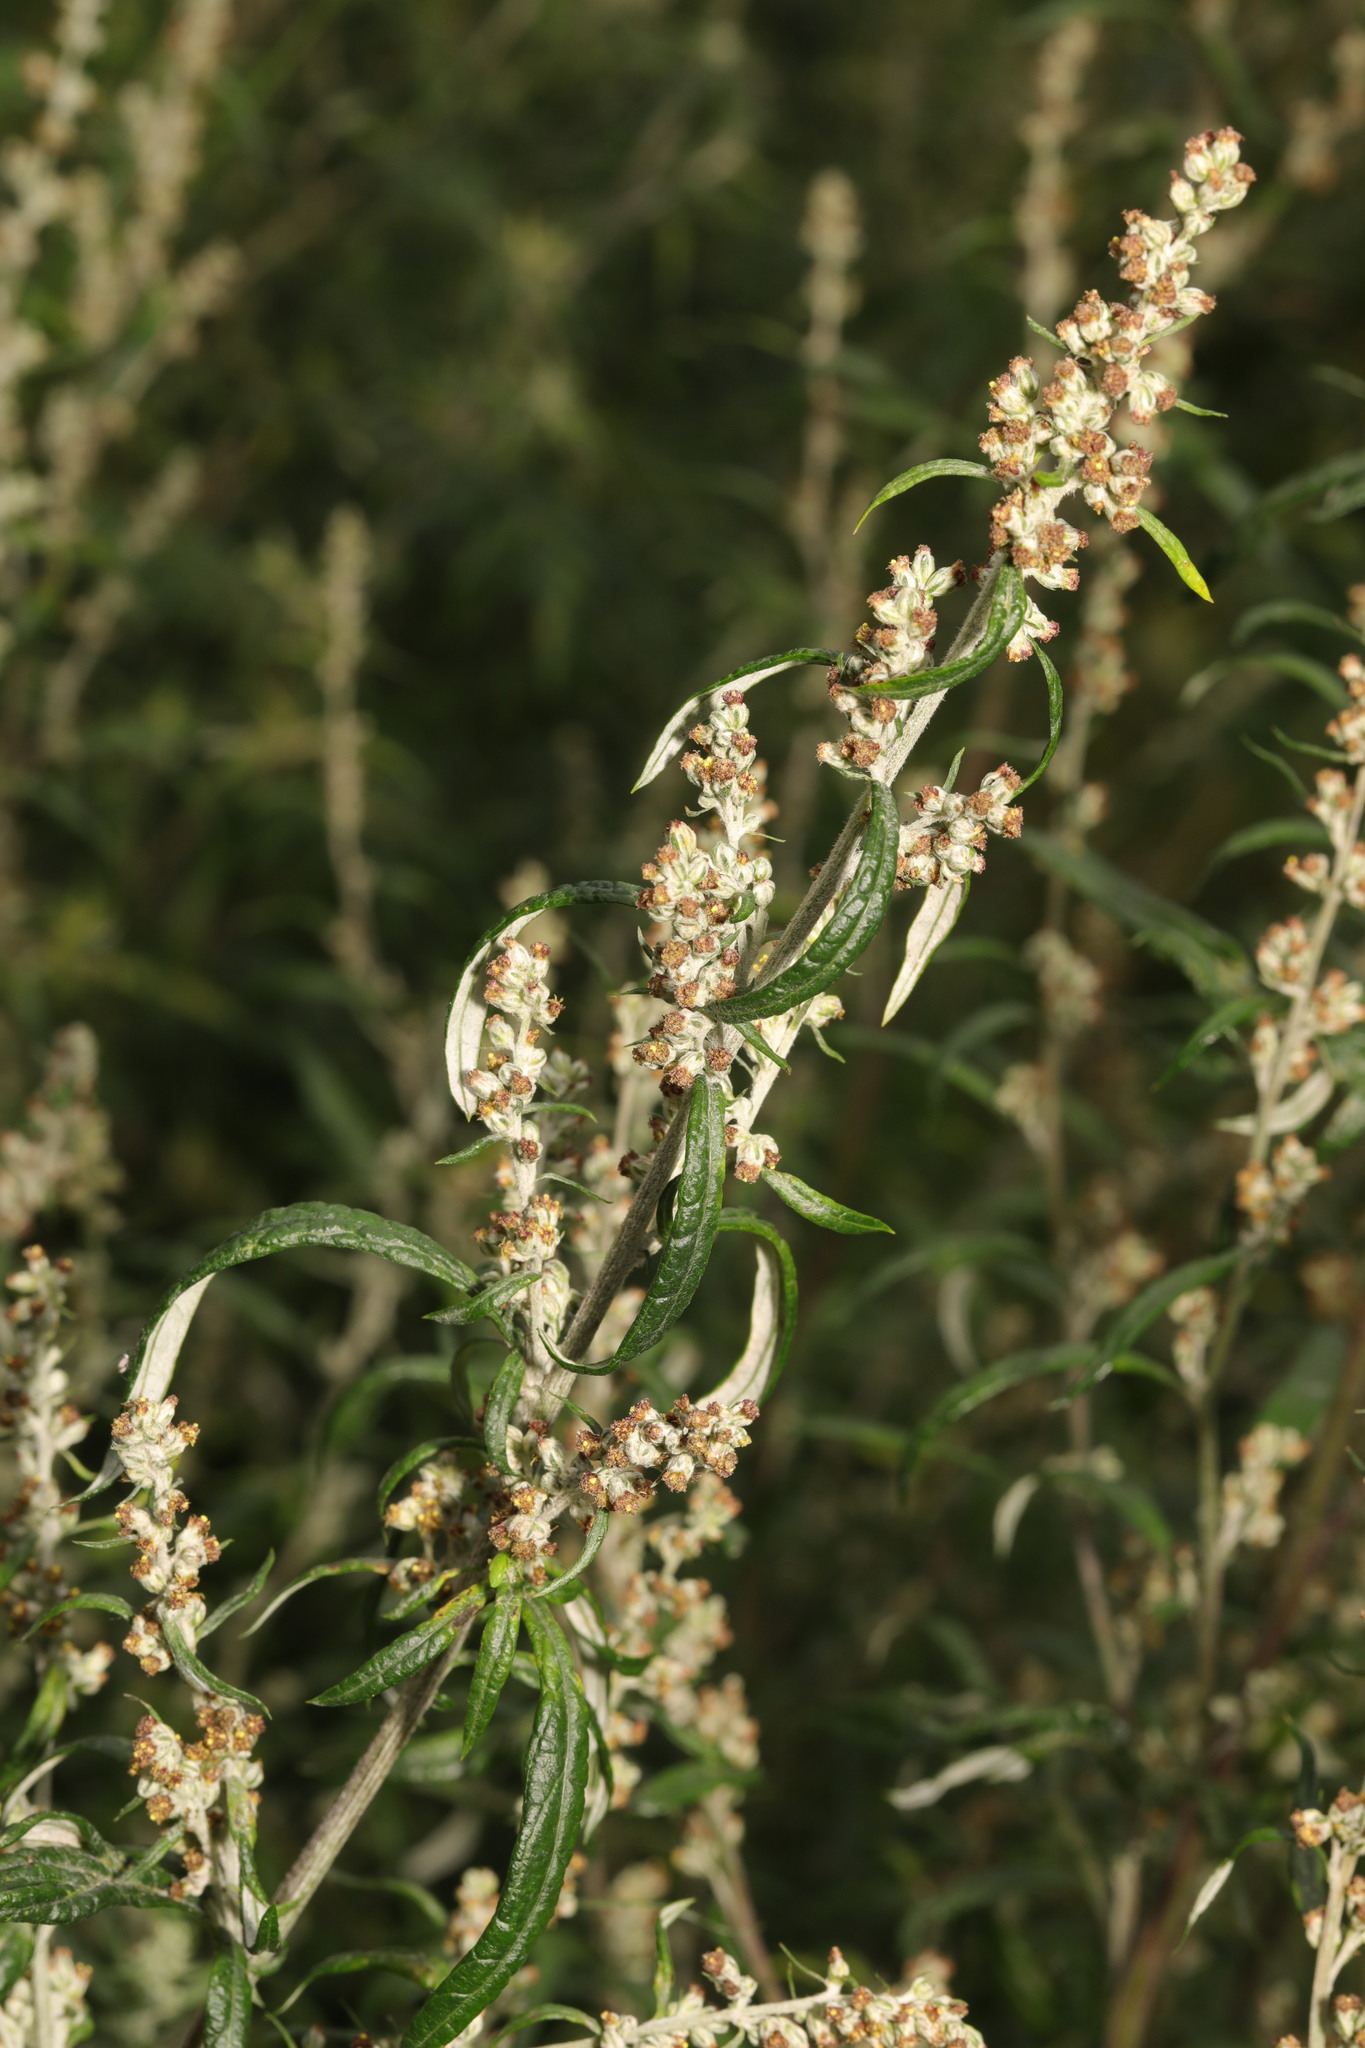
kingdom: Plantae
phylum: Tracheophyta
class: Magnoliopsida
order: Asterales
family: Asteraceae
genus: Artemisia
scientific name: Artemisia vulgaris
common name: Mugwort
